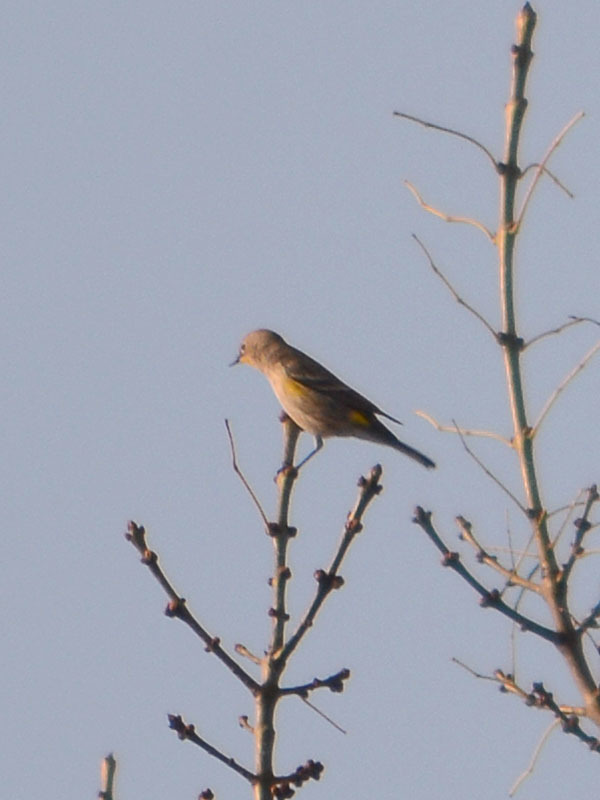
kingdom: Animalia
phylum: Chordata
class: Aves
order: Passeriformes
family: Parulidae
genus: Setophaga
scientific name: Setophaga auduboni
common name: Audubon's warbler
